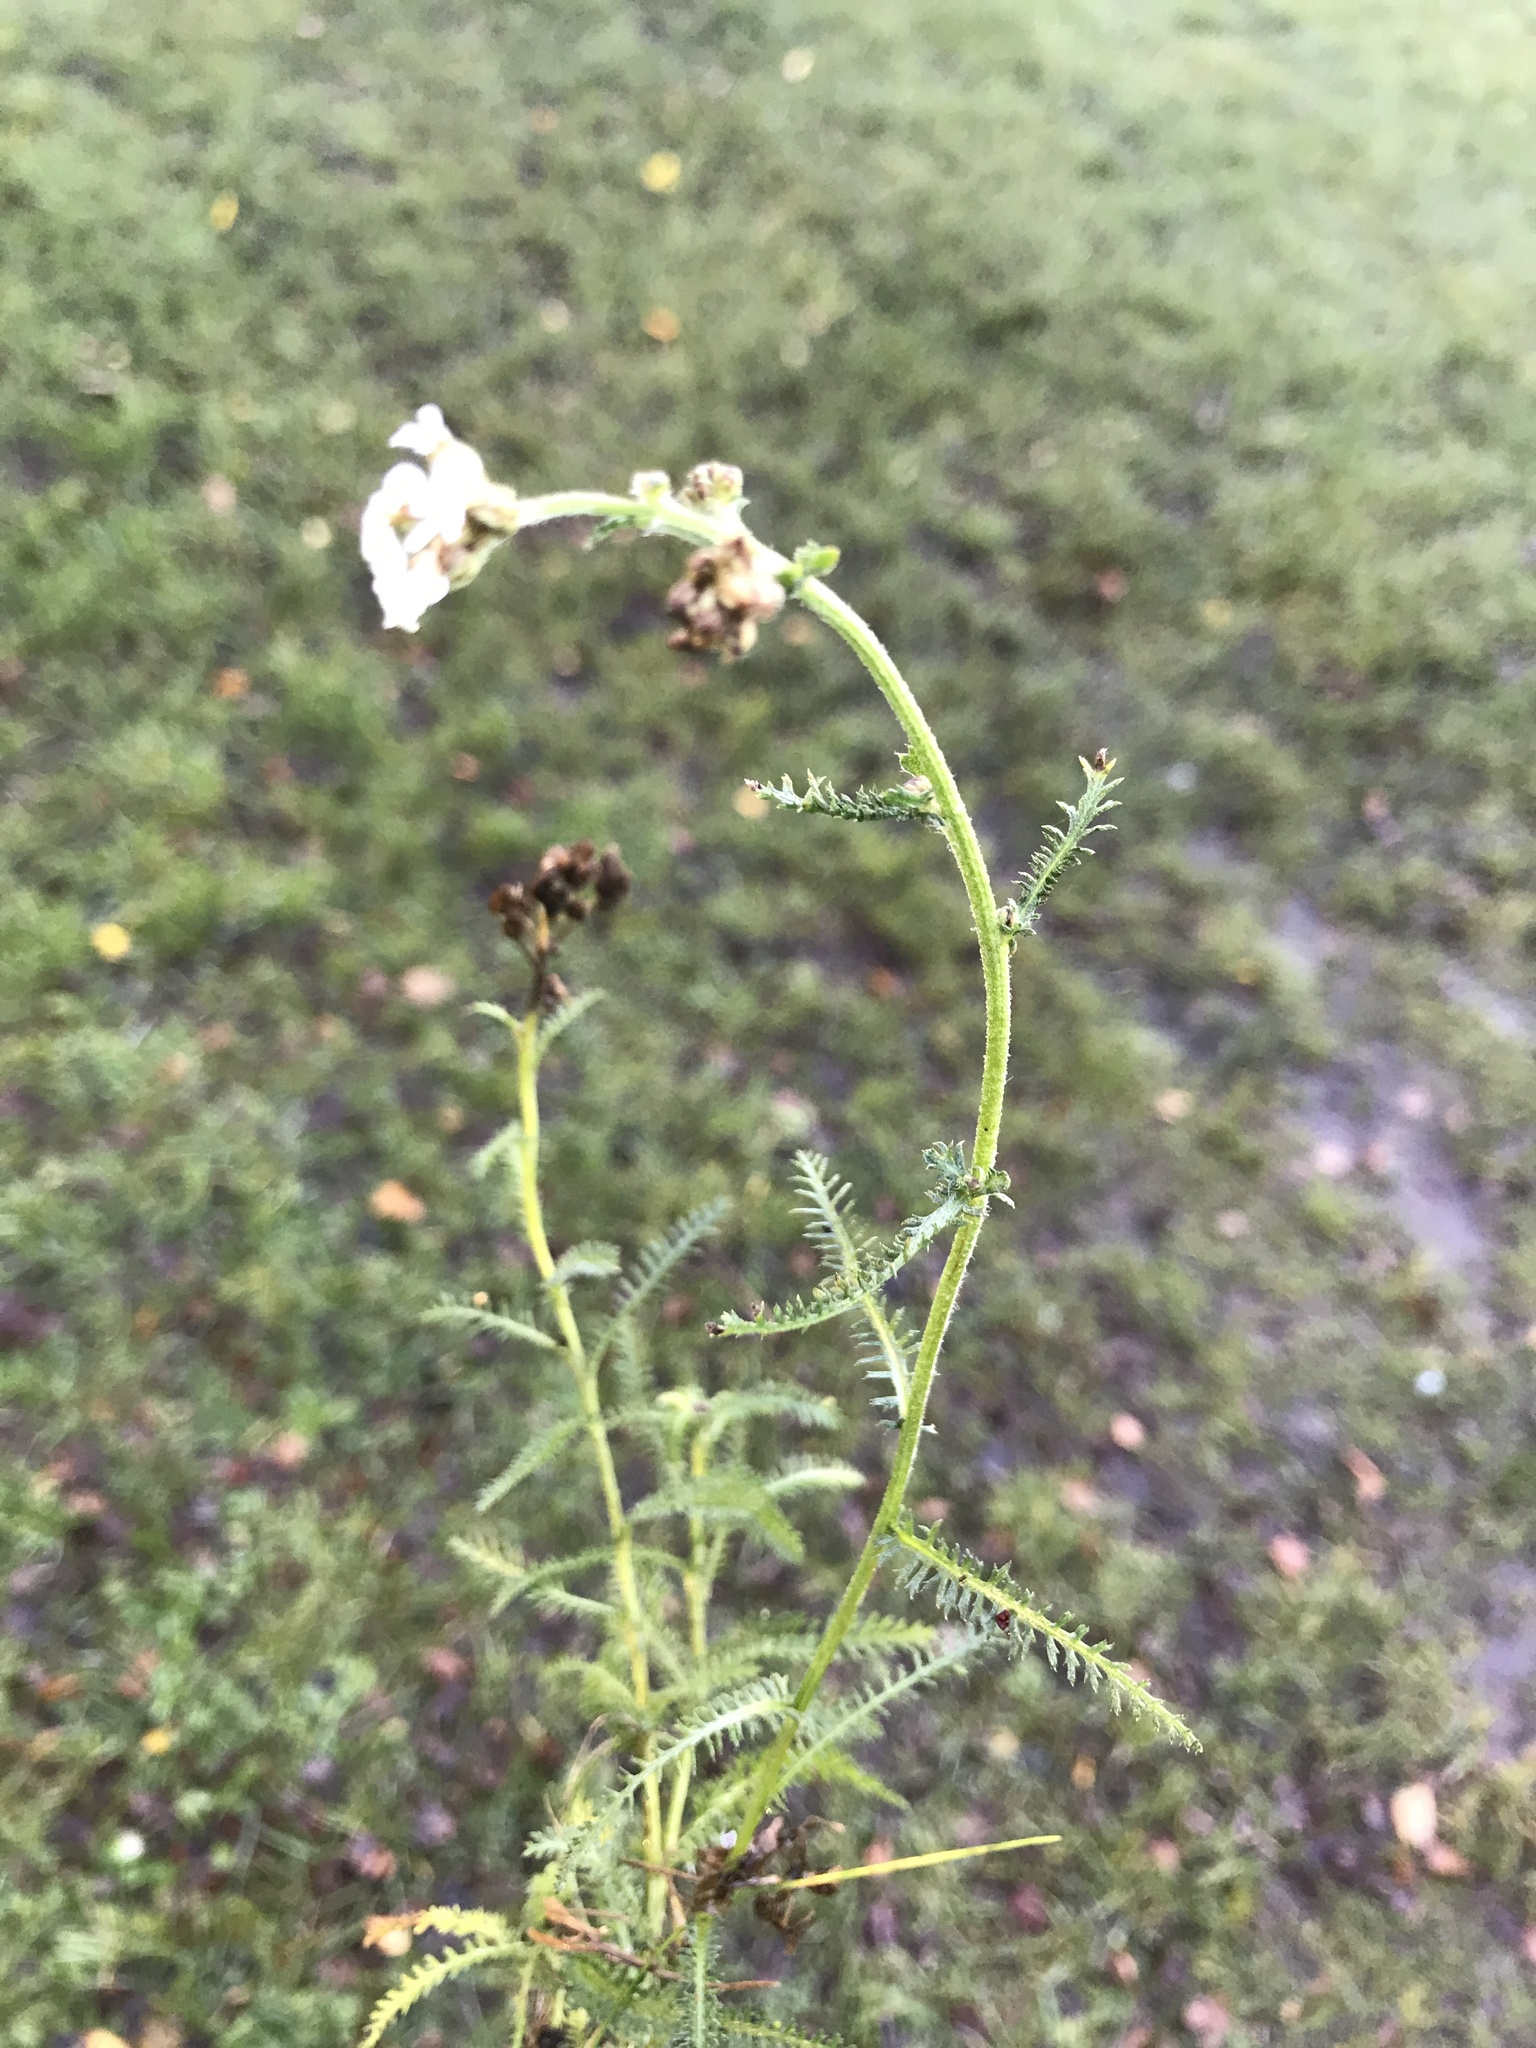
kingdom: Plantae
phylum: Tracheophyta
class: Magnoliopsida
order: Asterales
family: Asteraceae
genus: Achillea
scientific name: Achillea millefolium
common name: Yarrow
